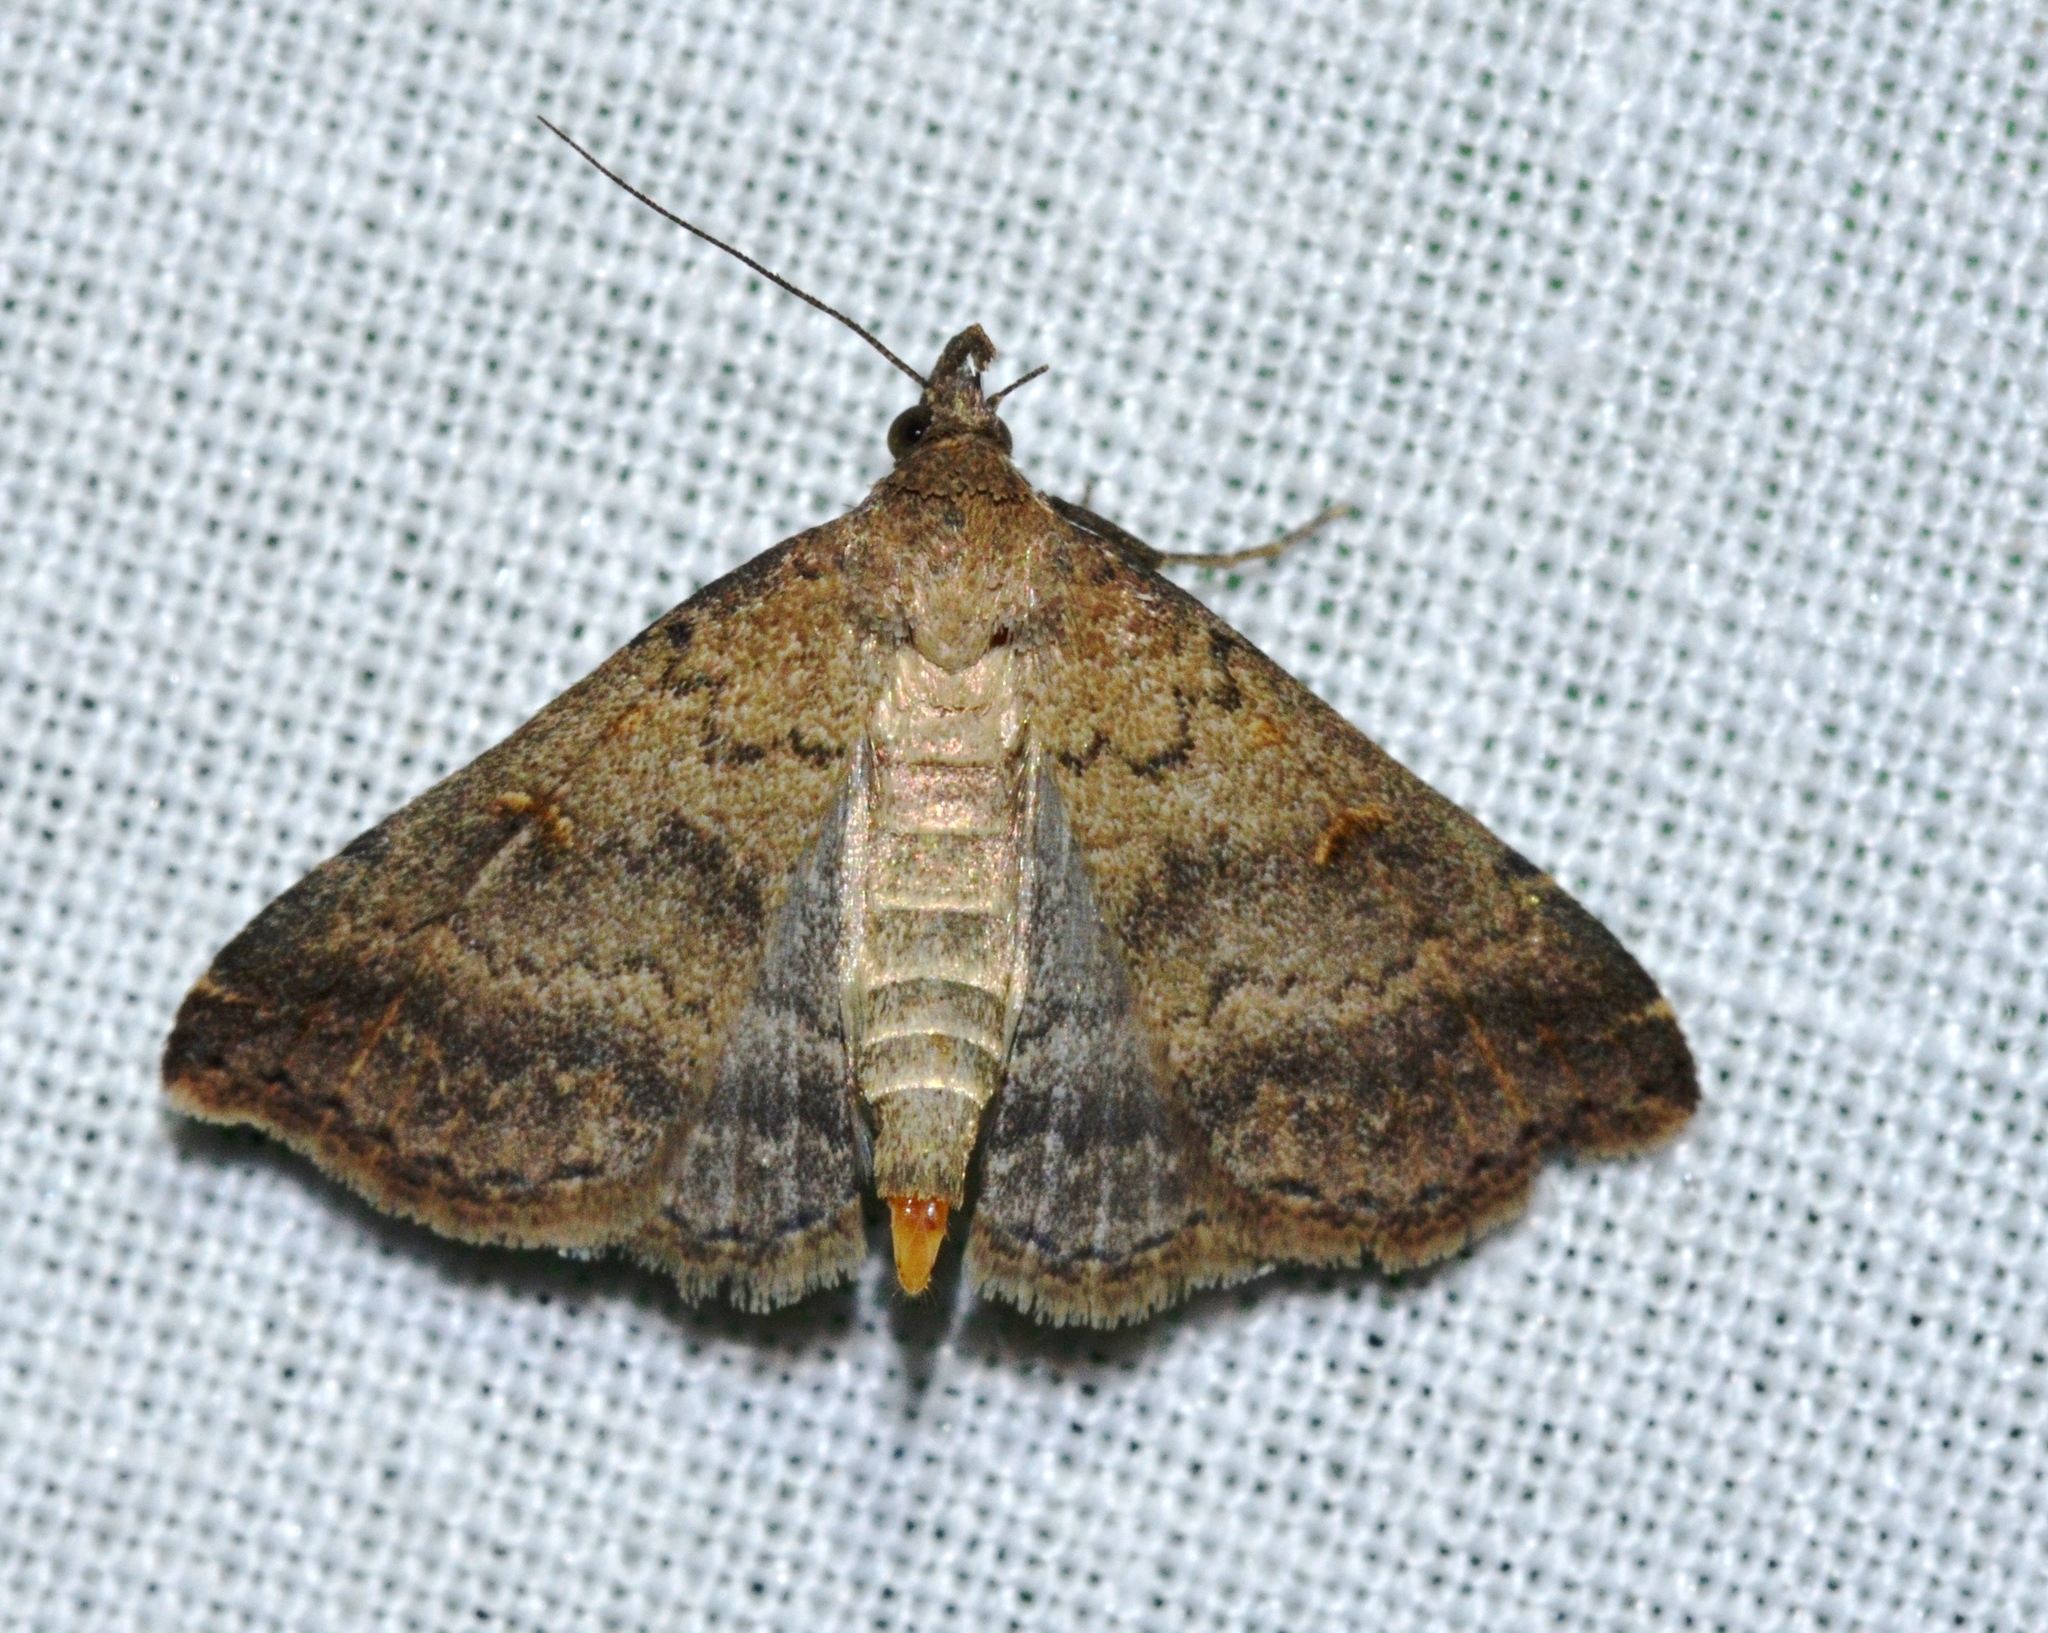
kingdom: Animalia
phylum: Arthropoda
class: Insecta
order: Lepidoptera
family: Erebidae
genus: Tetanolita
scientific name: Tetanolita floridana
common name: Florida tetanolita moth
